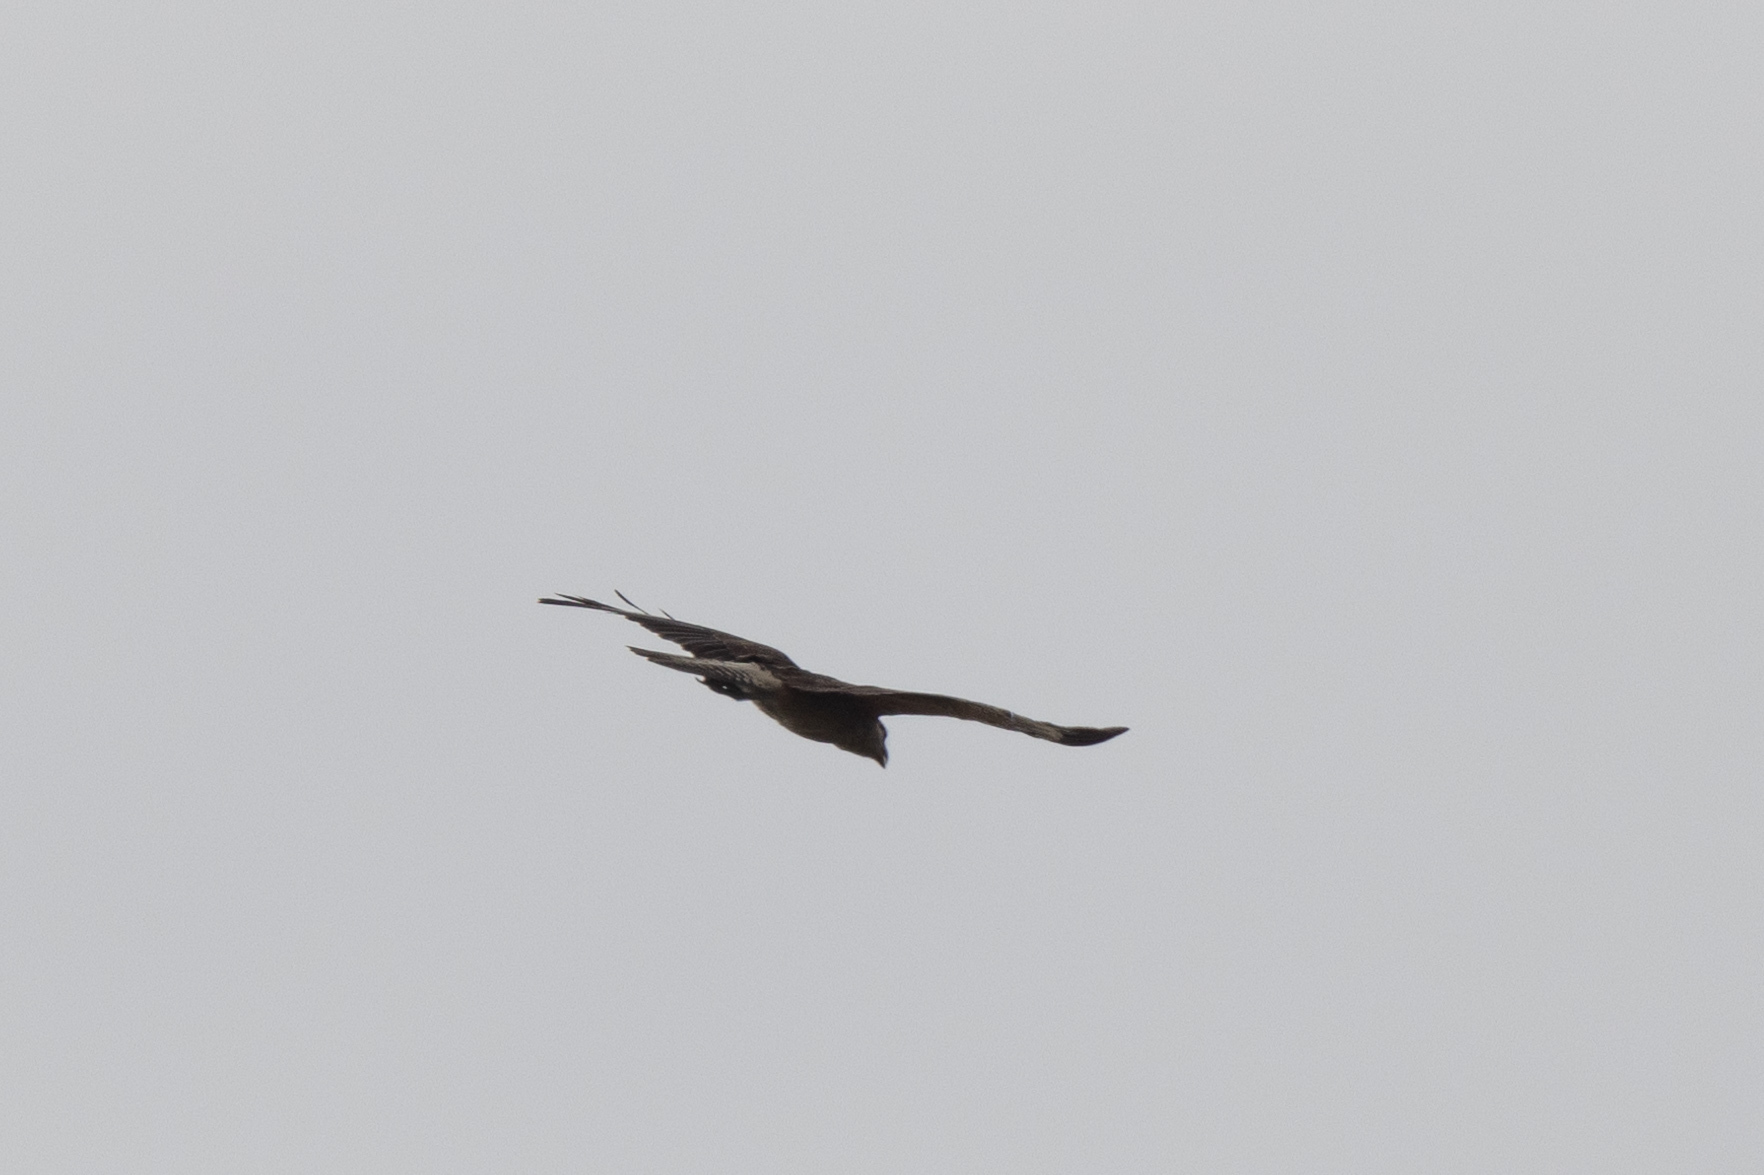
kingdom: Animalia
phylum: Chordata
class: Aves
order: Falconiformes
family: Falconidae
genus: Daptrius
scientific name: Daptrius
